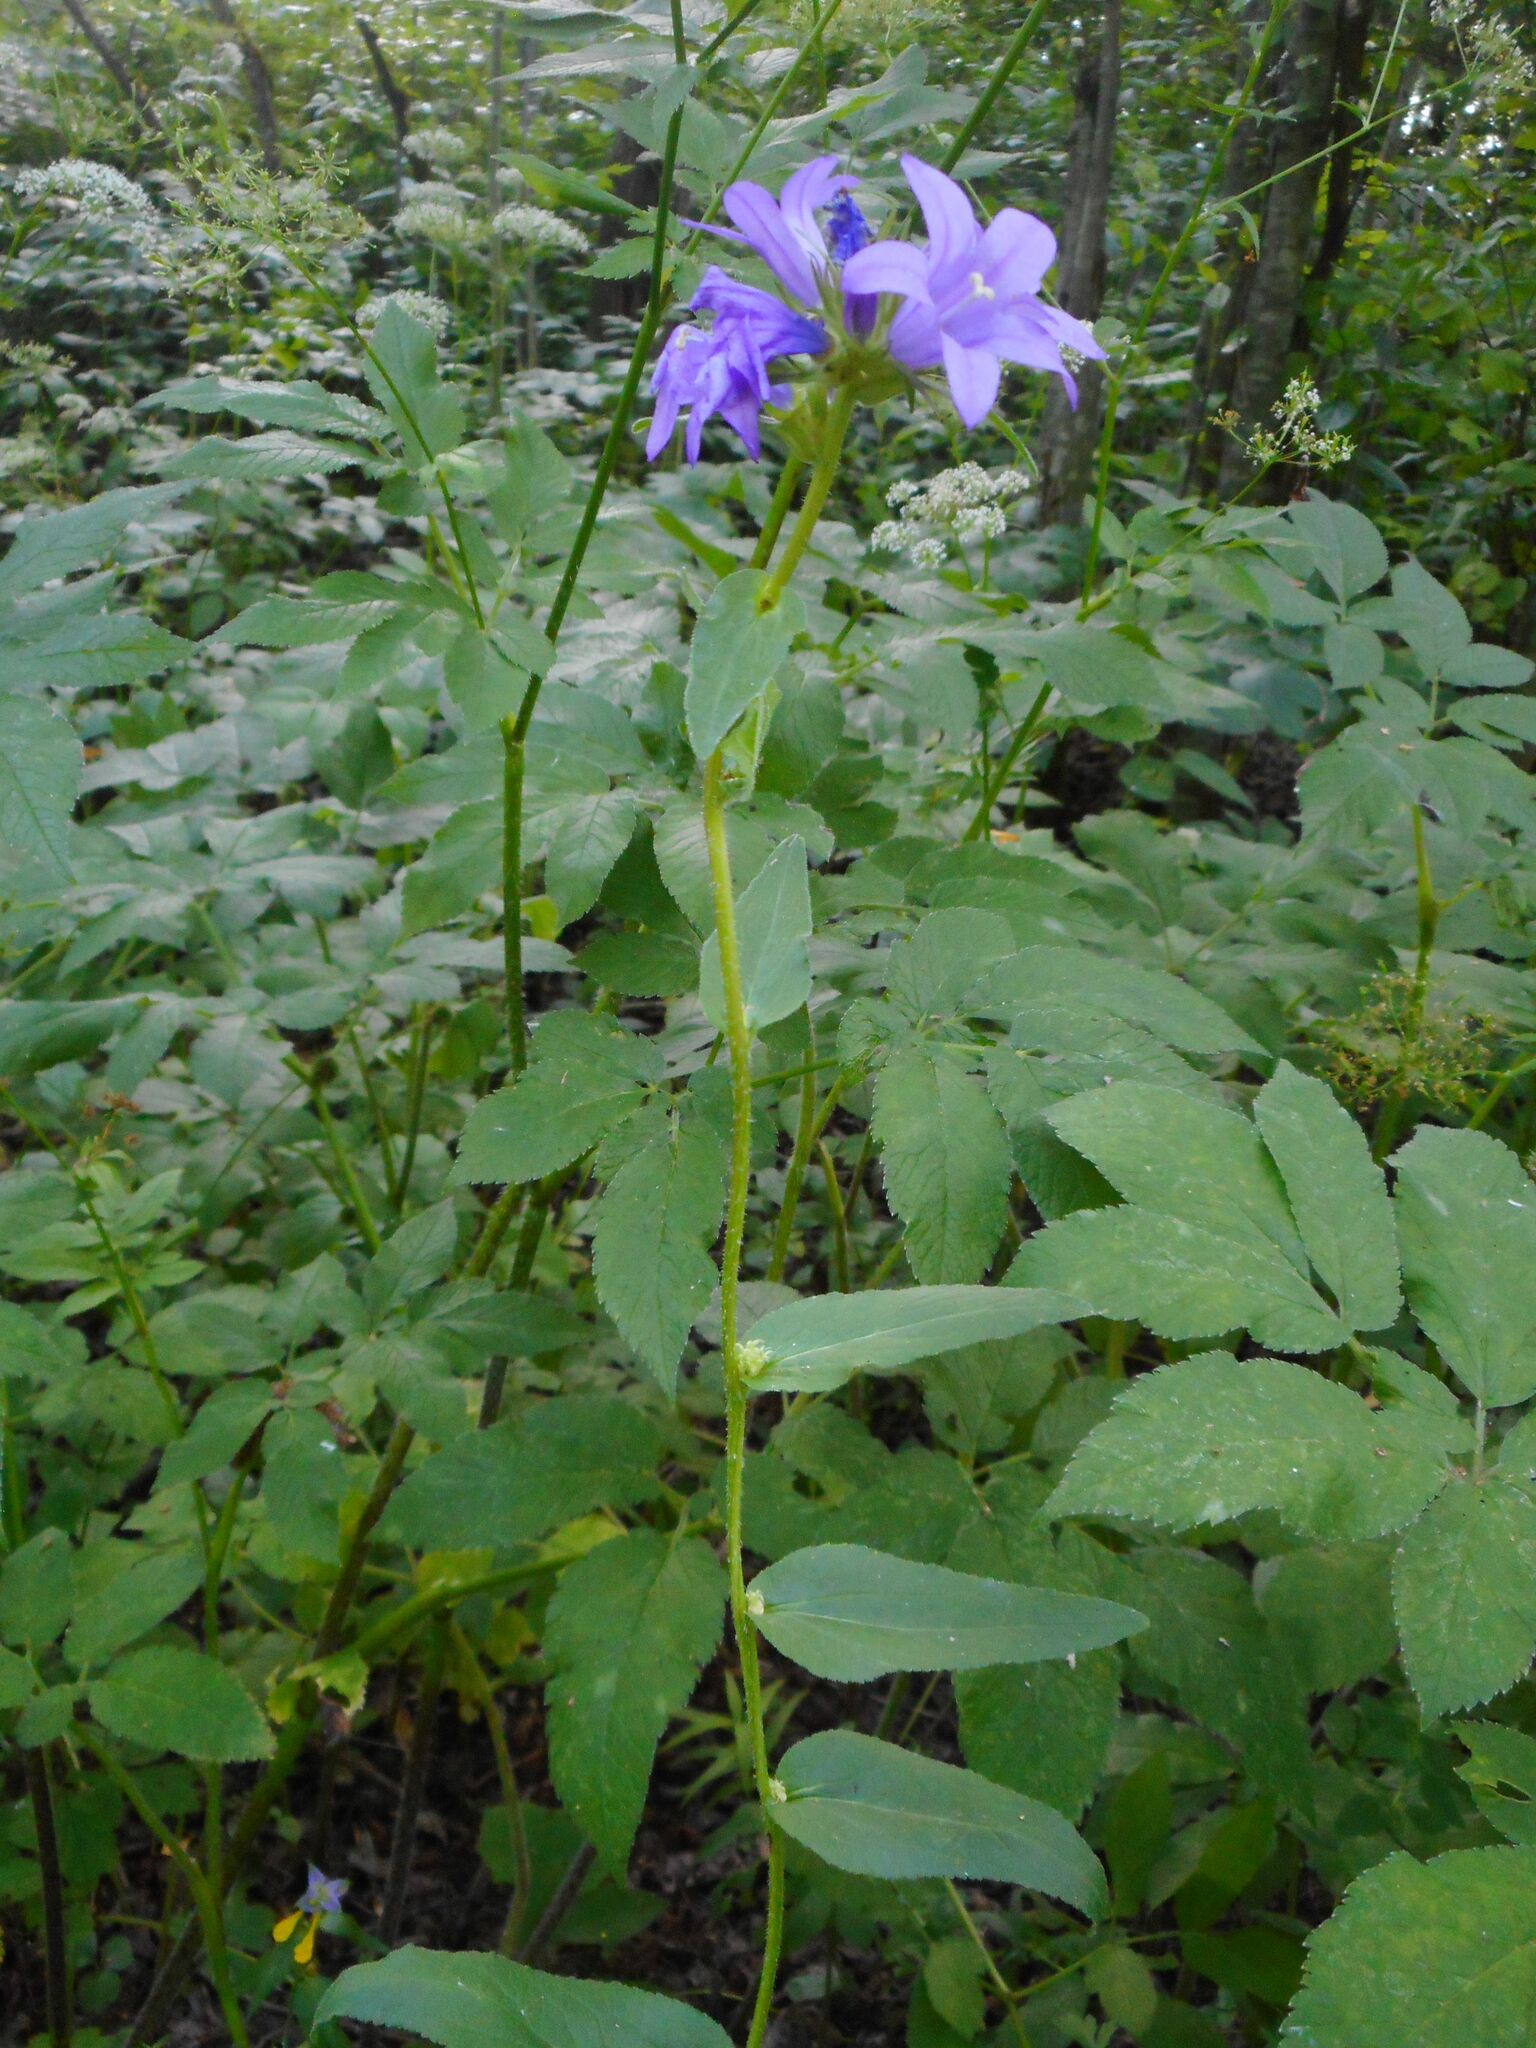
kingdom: Plantae
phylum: Tracheophyta
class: Magnoliopsida
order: Asterales
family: Campanulaceae
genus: Campanula
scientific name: Campanula glomerata
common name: Clustered bellflower
